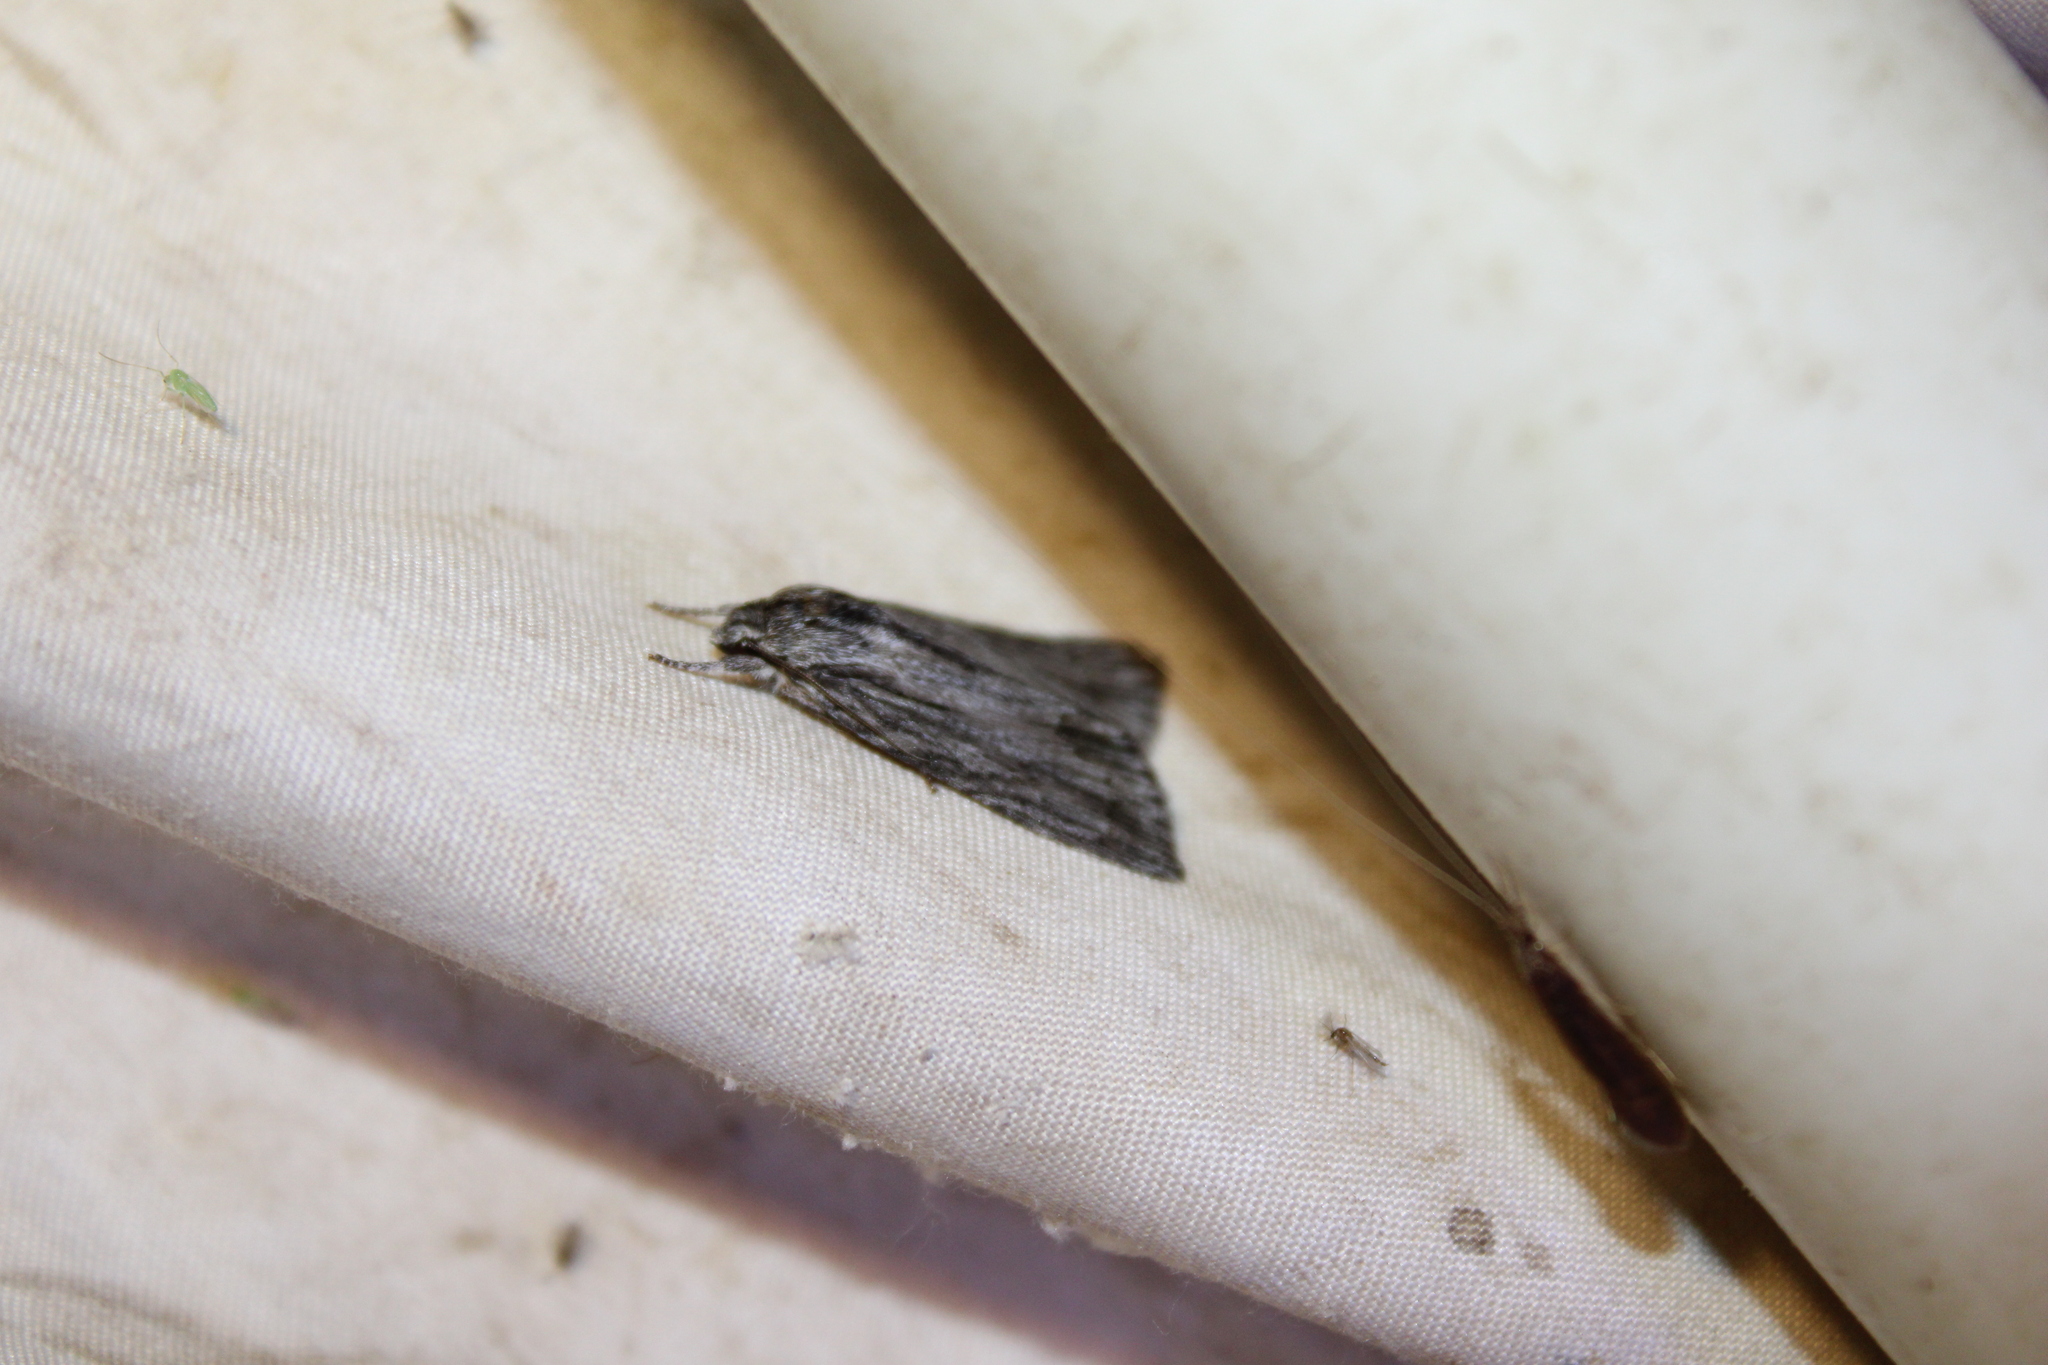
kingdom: Animalia
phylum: Arthropoda
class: Insecta
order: Lepidoptera
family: Noctuidae
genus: Acronicta
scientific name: Acronicta lithospila
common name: Streaked dagger
